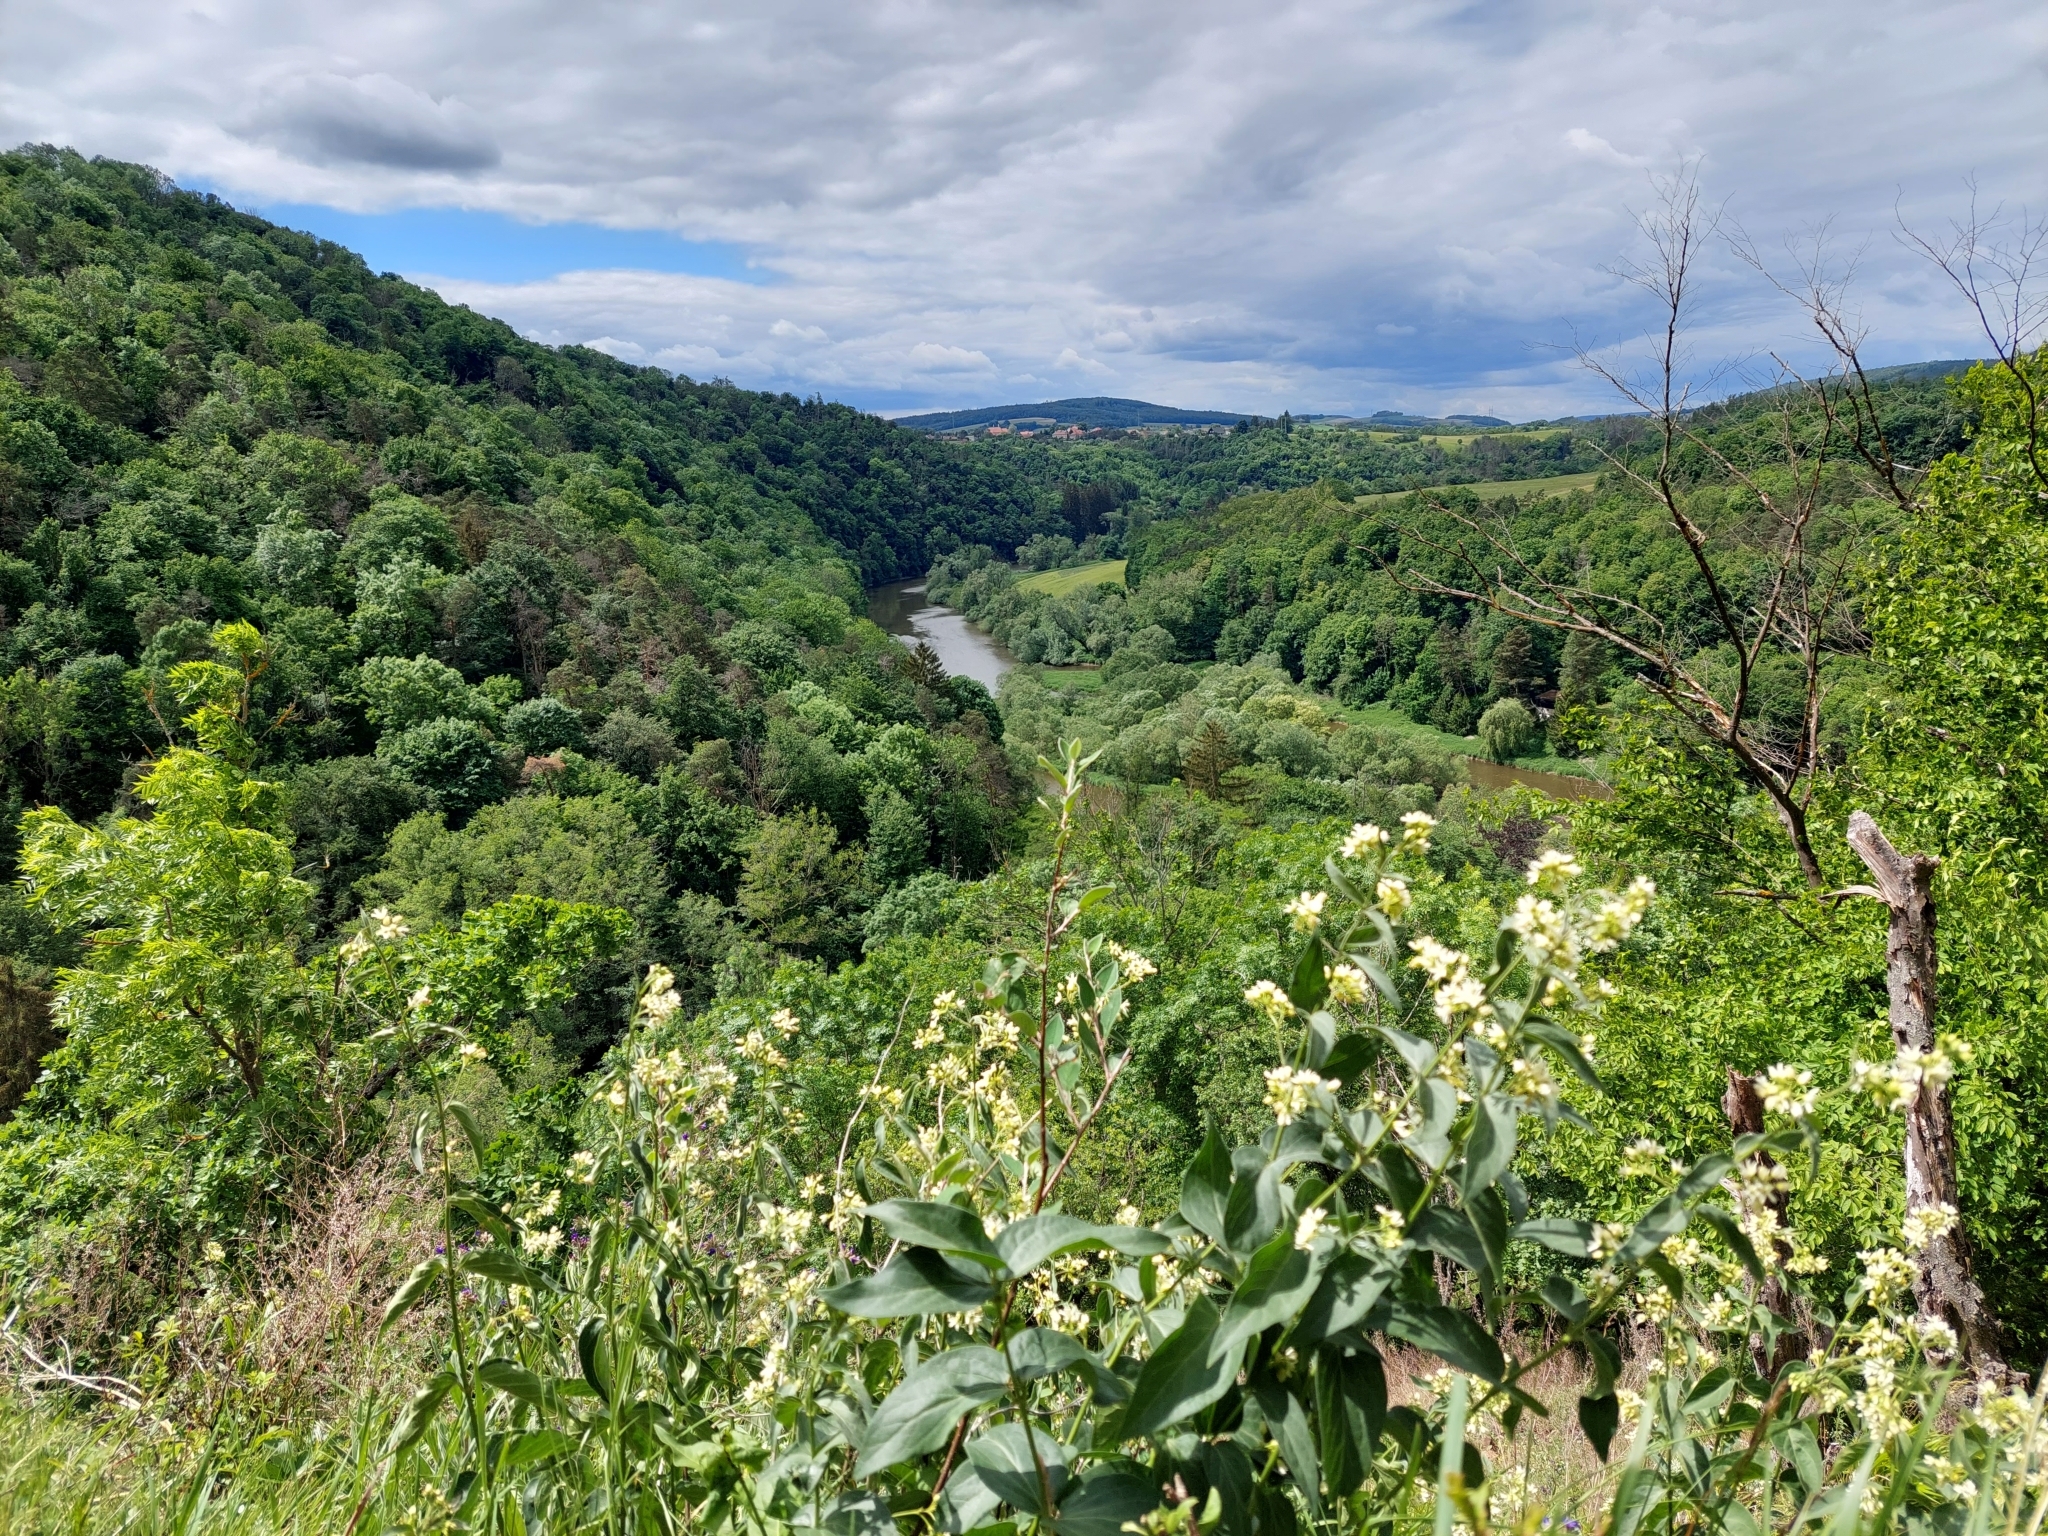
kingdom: Plantae
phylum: Tracheophyta
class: Magnoliopsida
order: Gentianales
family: Apocynaceae
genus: Vincetoxicum
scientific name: Vincetoxicum hirundinaria
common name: White swallowwort
